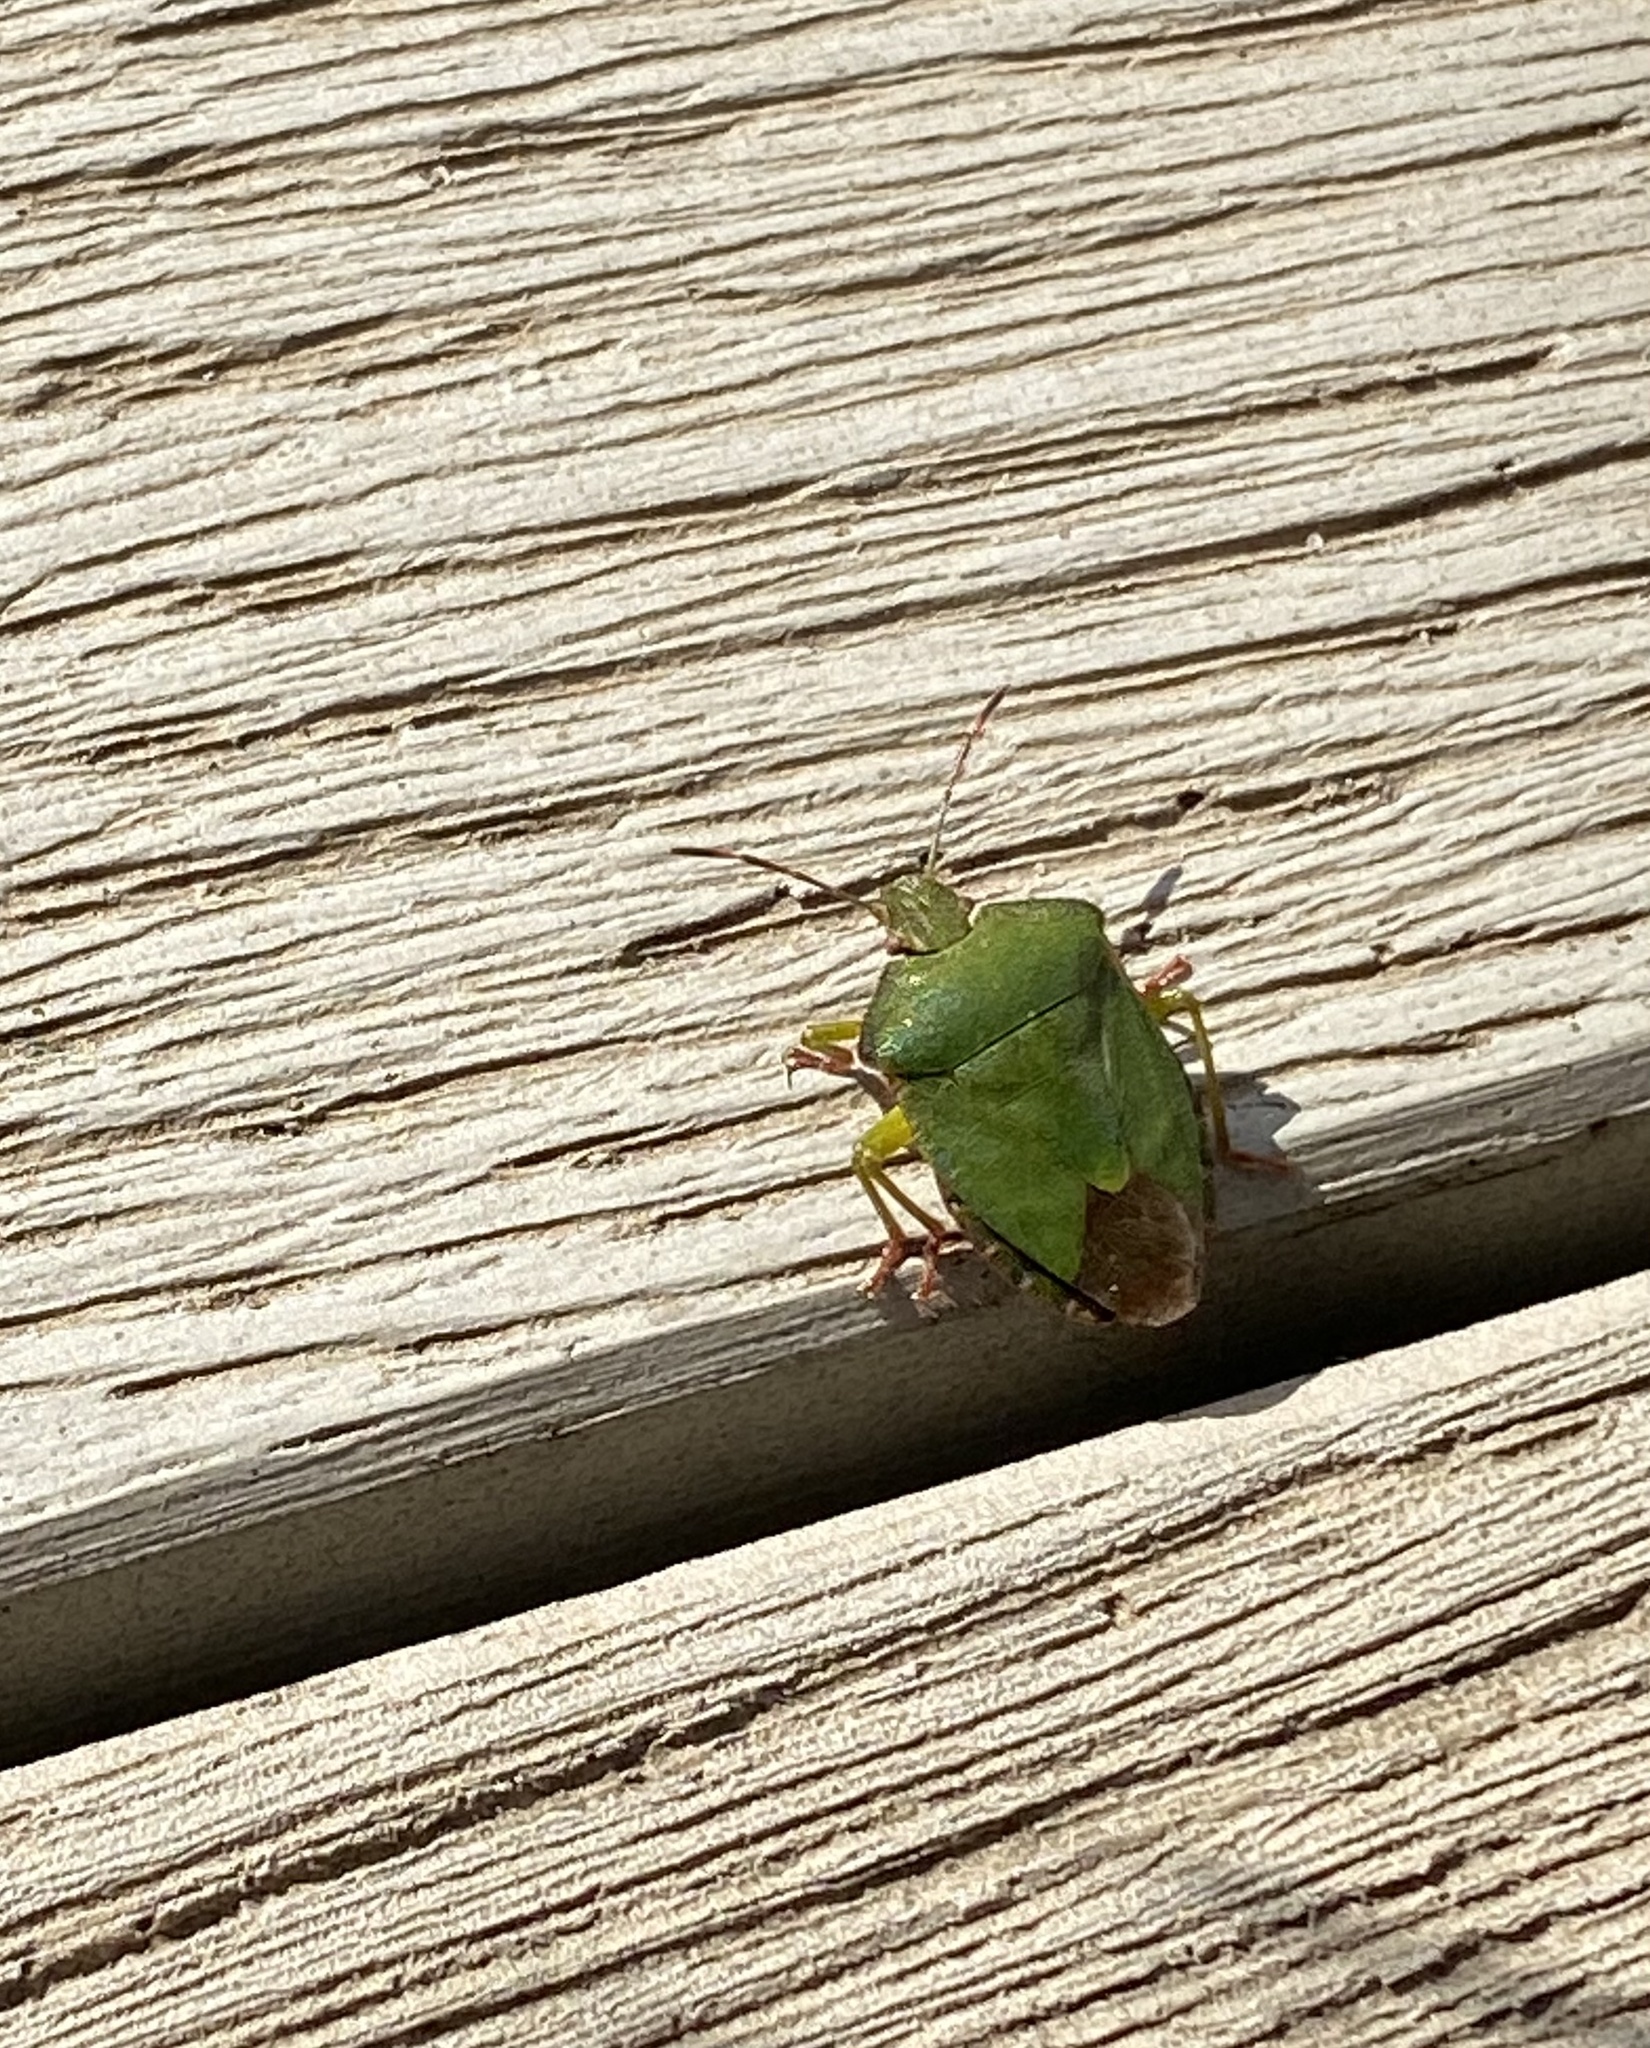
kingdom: Animalia
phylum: Arthropoda
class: Insecta
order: Hemiptera
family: Pentatomidae
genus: Palomena
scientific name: Palomena prasina
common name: Green shieldbug
